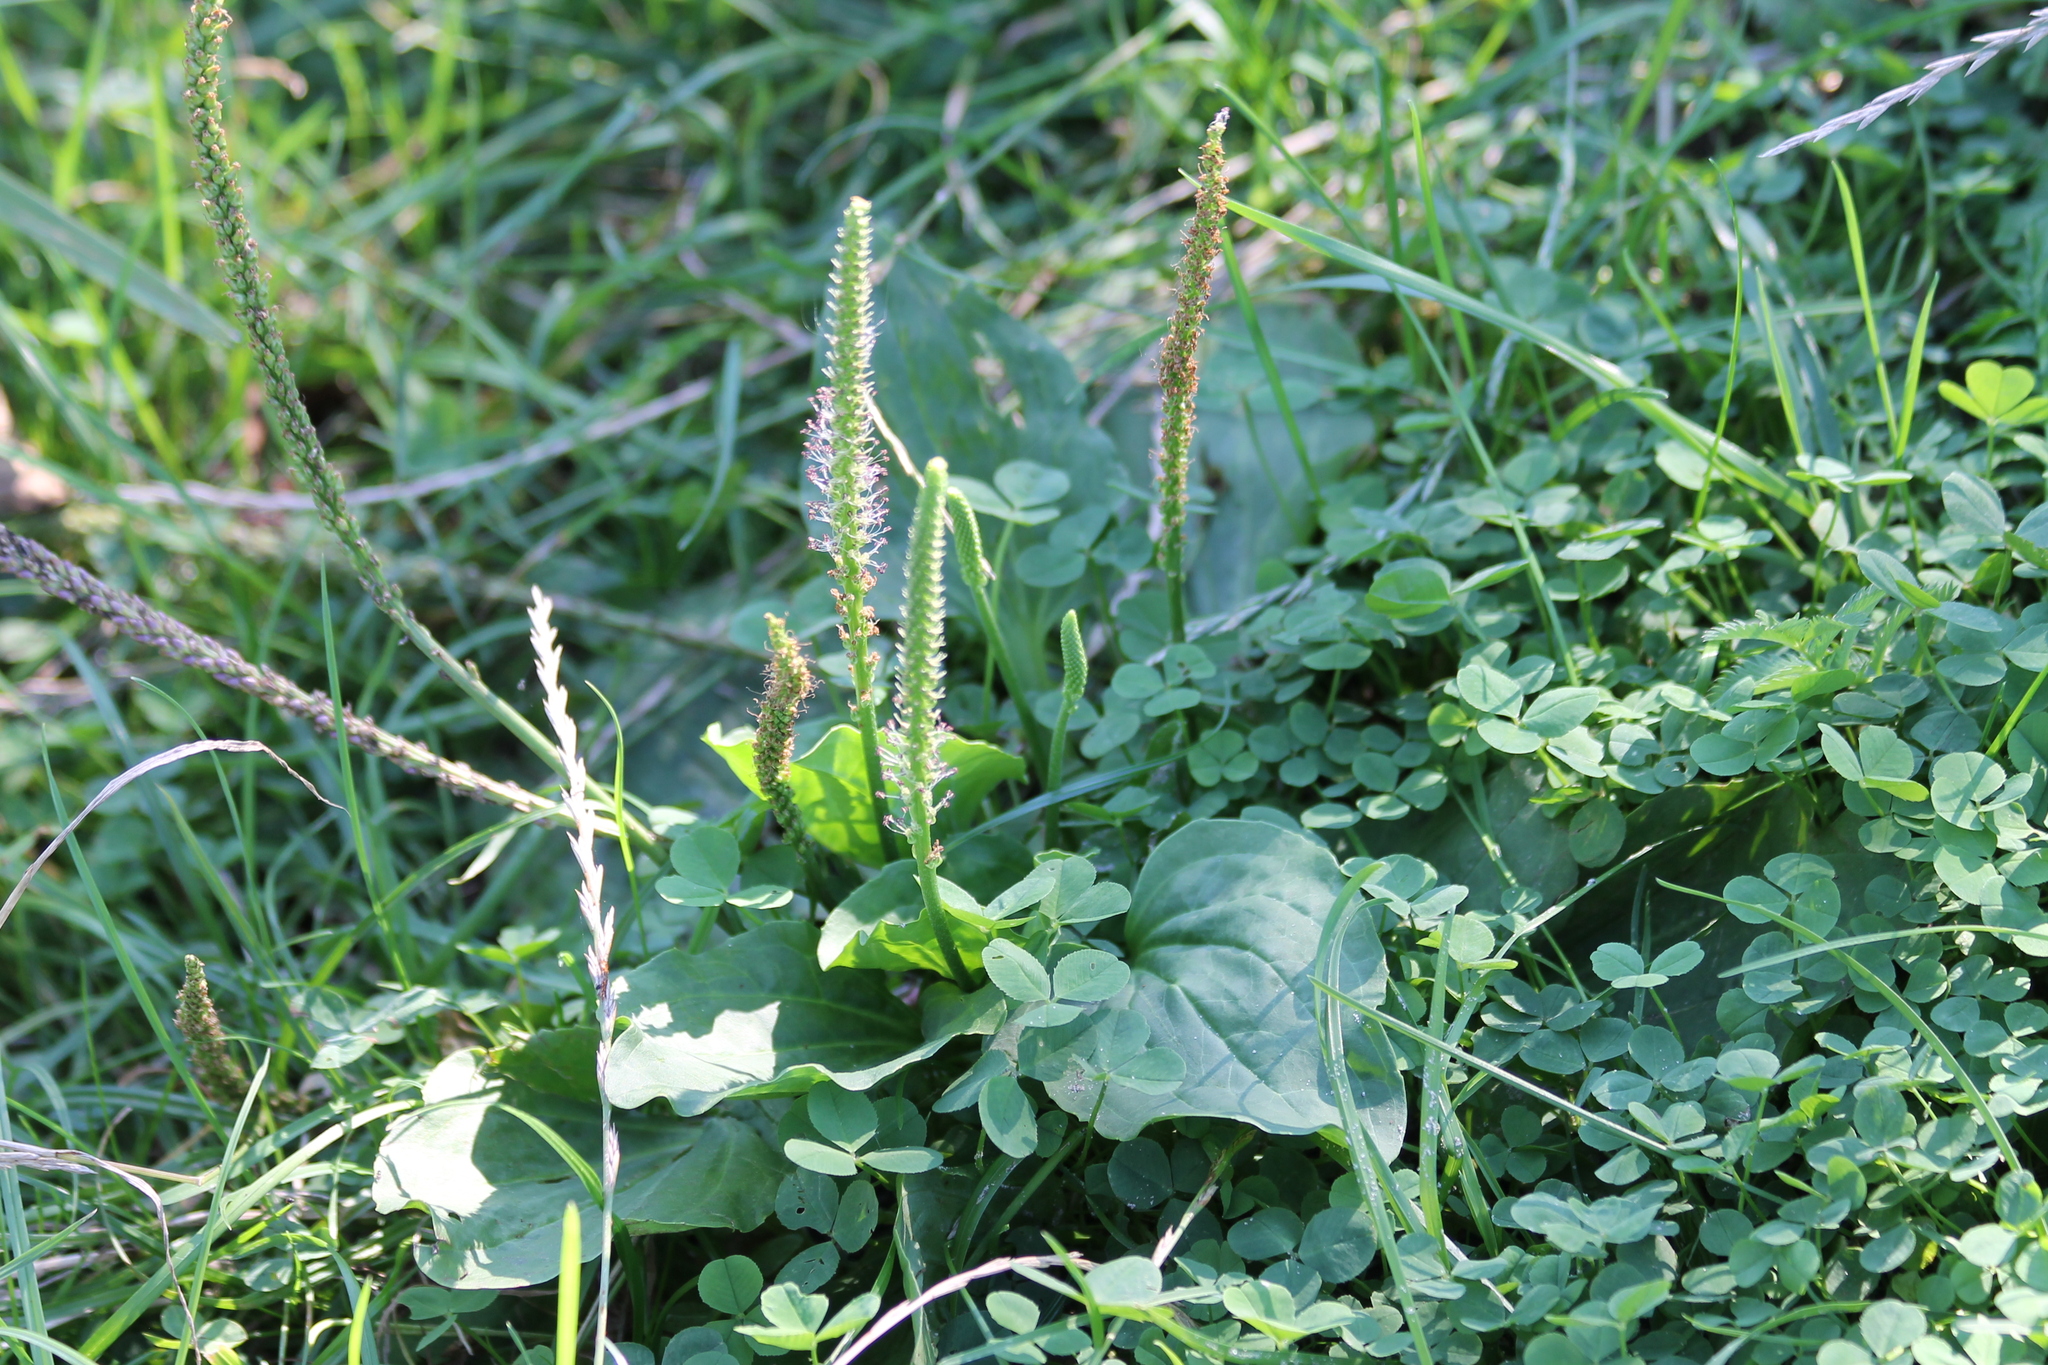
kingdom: Plantae
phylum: Tracheophyta
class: Magnoliopsida
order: Lamiales
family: Plantaginaceae
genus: Plantago
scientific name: Plantago major
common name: Common plantain
